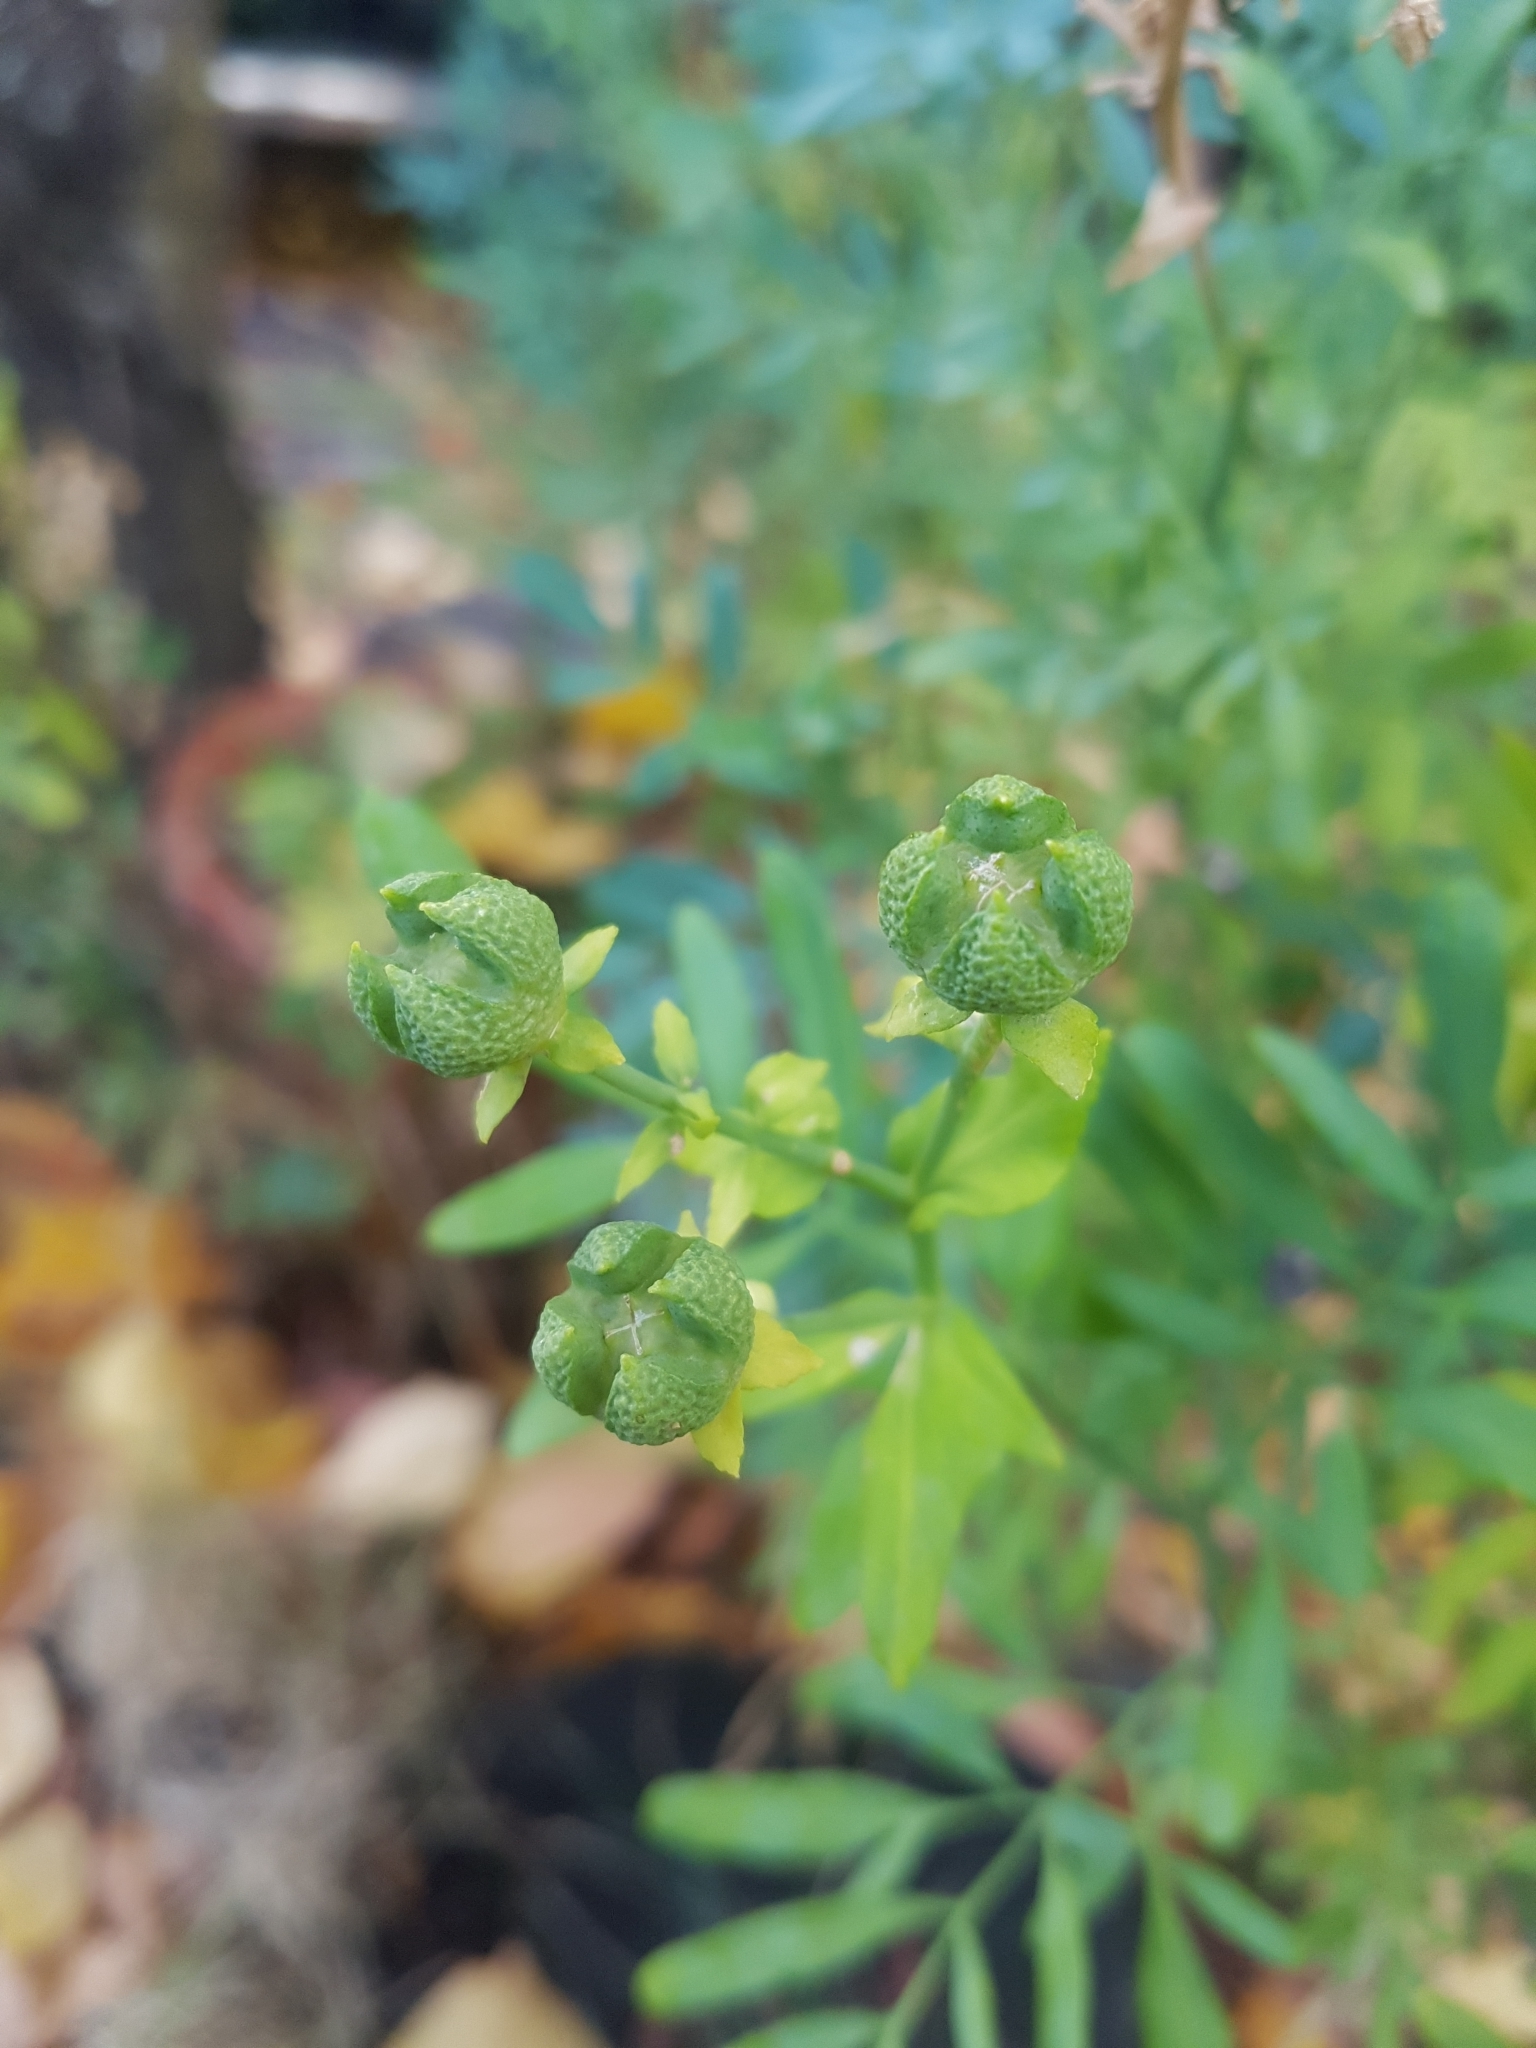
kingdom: Plantae
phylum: Tracheophyta
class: Magnoliopsida
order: Sapindales
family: Rutaceae
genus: Ruta
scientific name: Ruta graveolens
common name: Common rue
